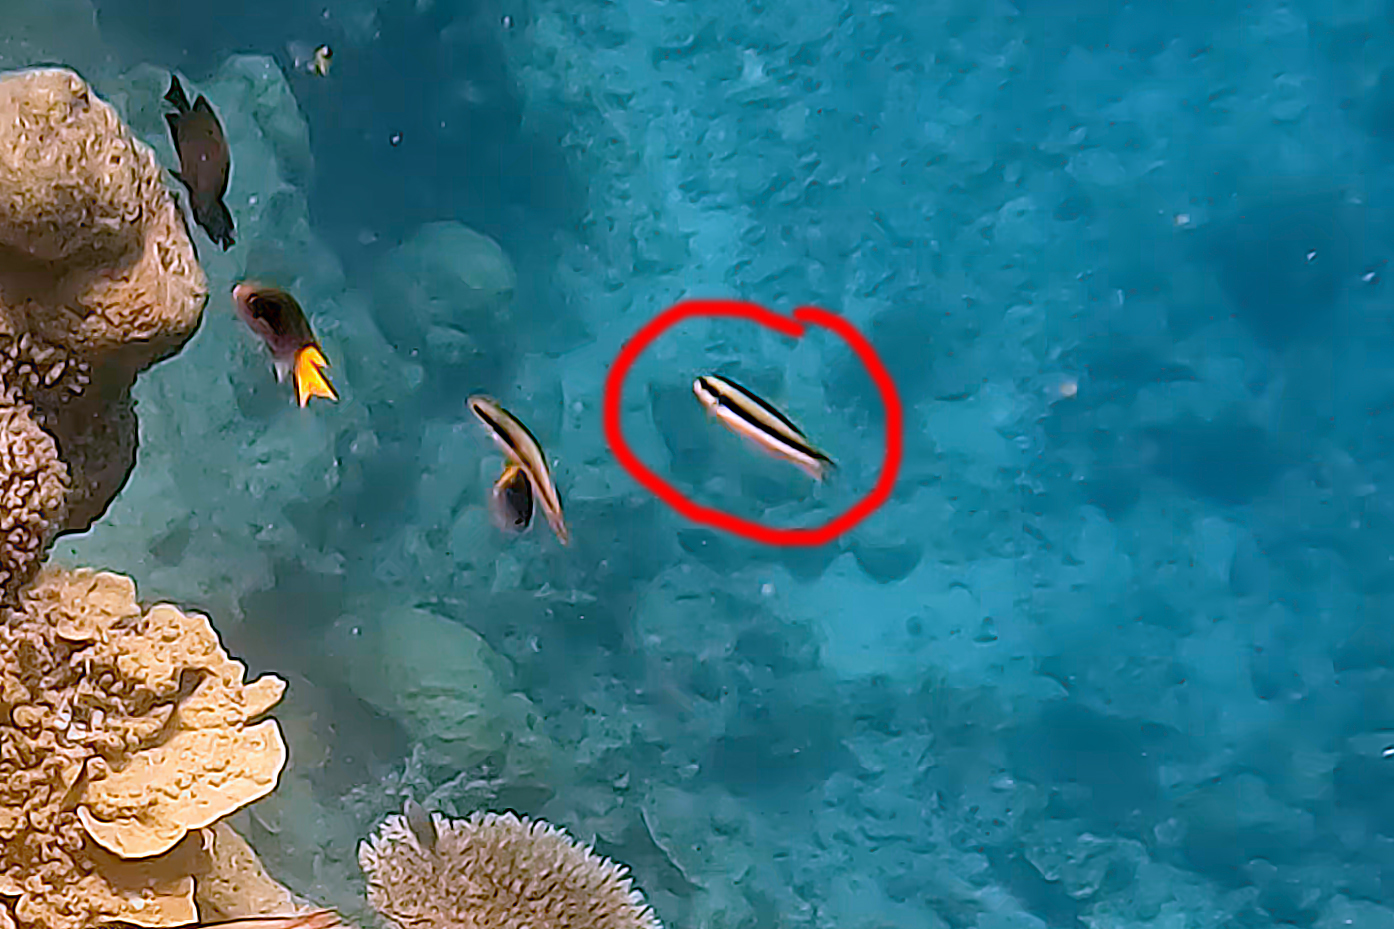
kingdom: Animalia
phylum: Chordata
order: Perciformes
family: Labridae
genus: Thalassoma
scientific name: Thalassoma amblycephalum
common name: Bluehead wrasse
